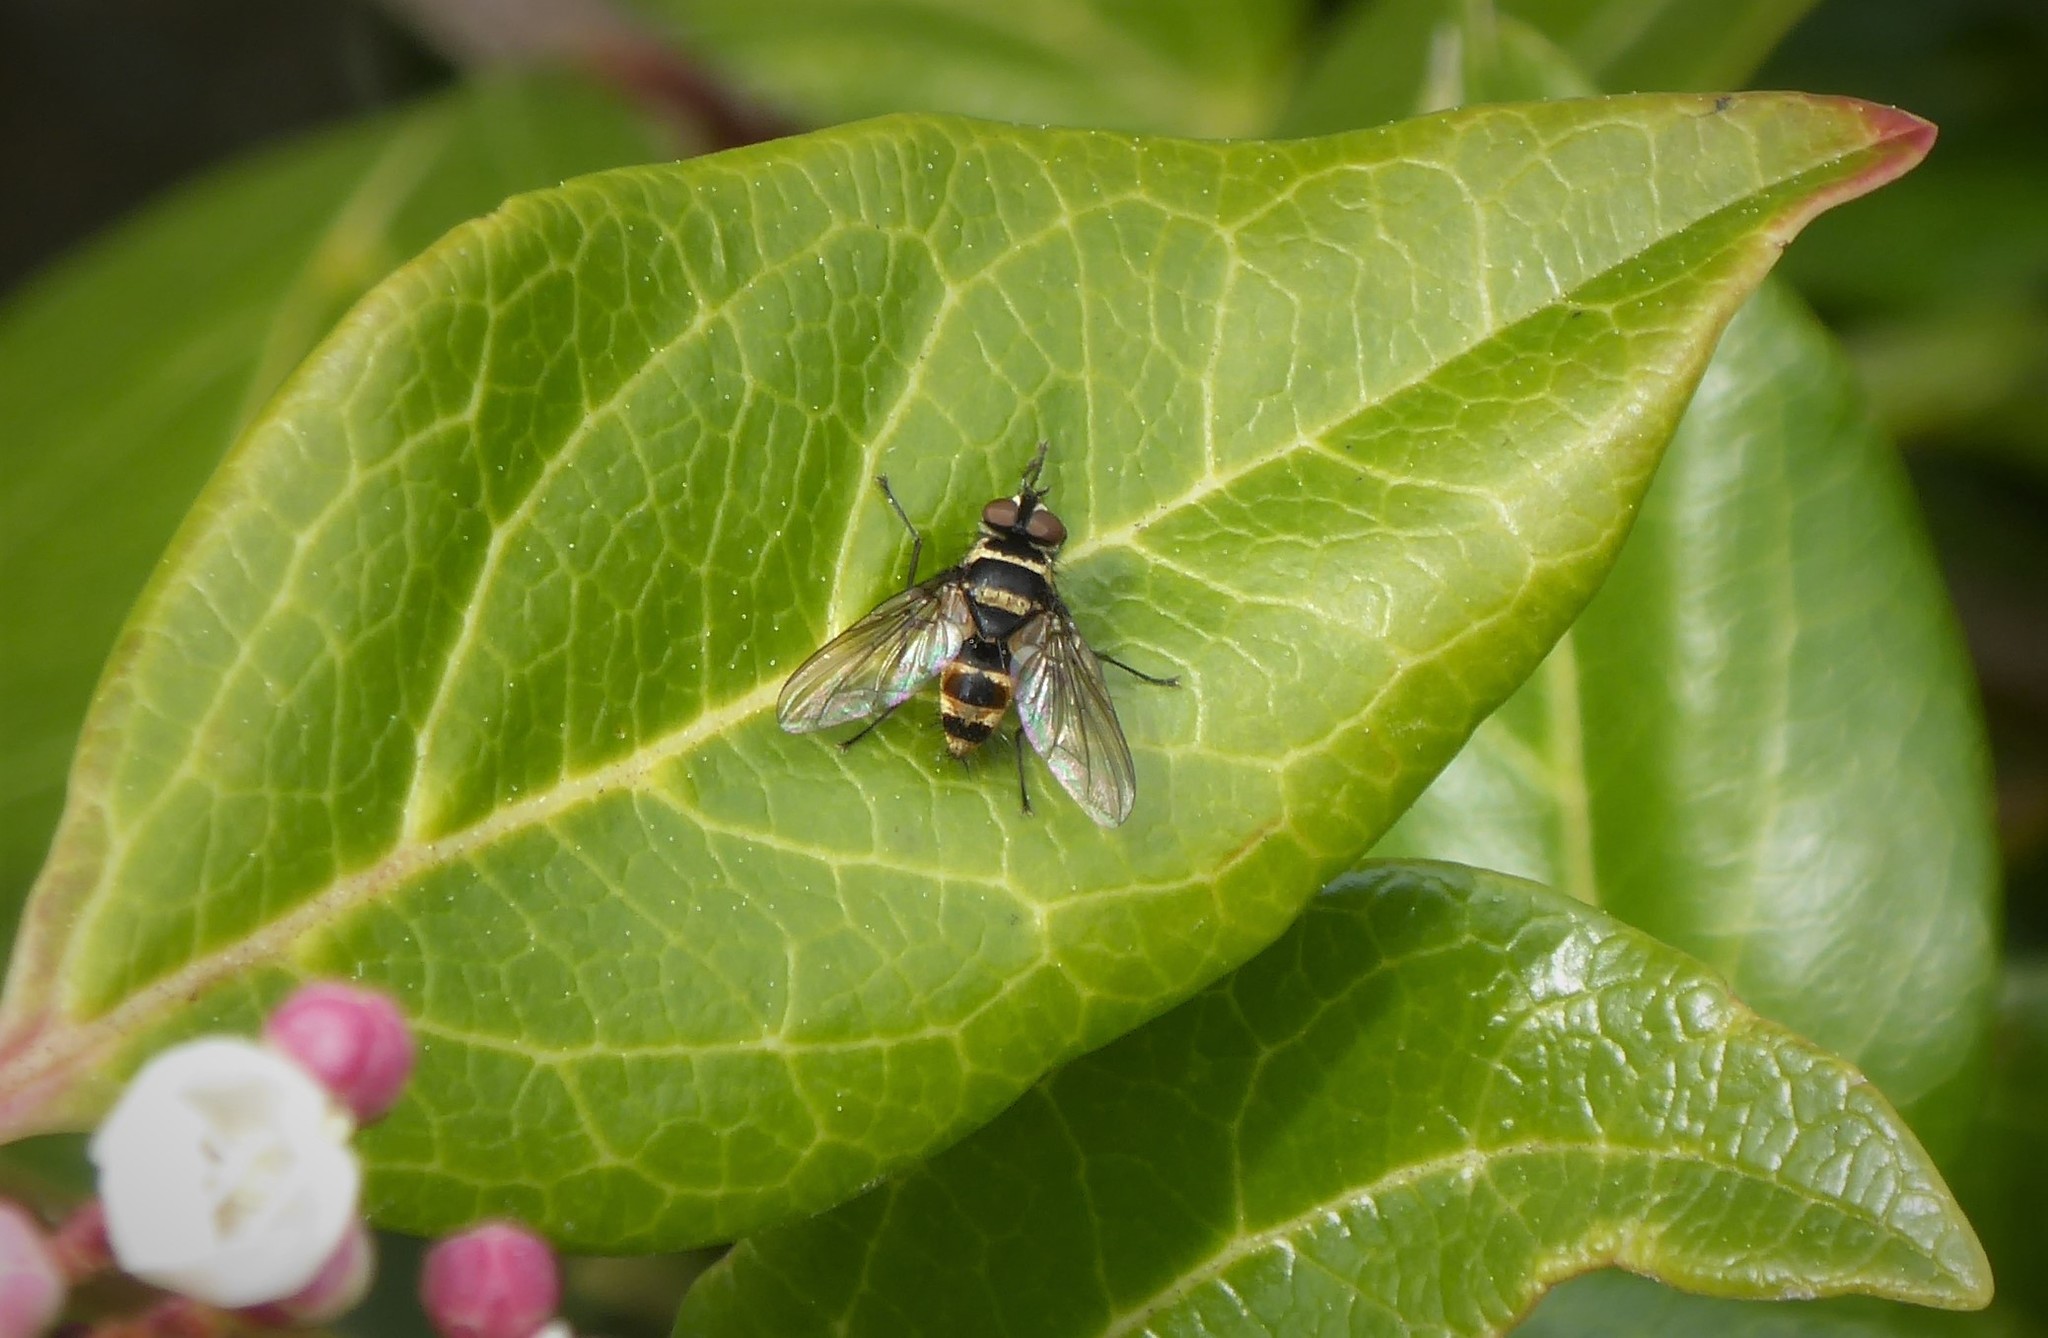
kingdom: Animalia
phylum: Arthropoda
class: Insecta
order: Diptera
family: Tachinidae
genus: Trigonospila
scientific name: Trigonospila brevifacies
